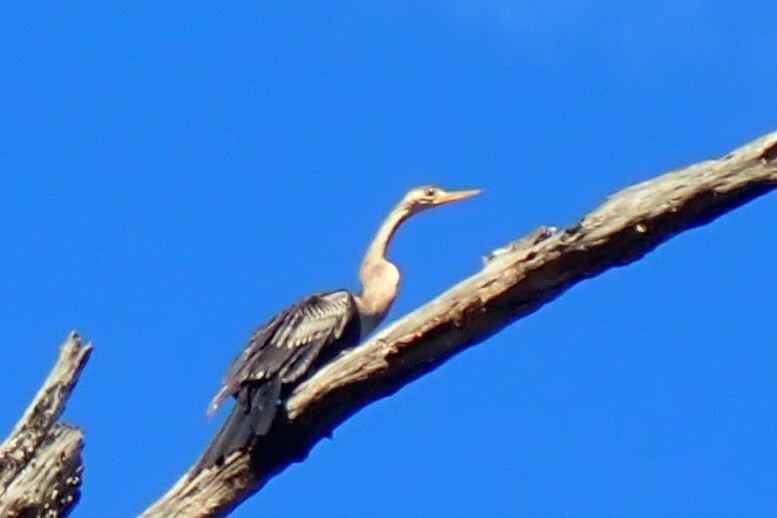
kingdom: Animalia
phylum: Chordata
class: Aves
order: Suliformes
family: Anhingidae
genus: Anhinga
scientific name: Anhinga anhinga
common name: Anhinga
